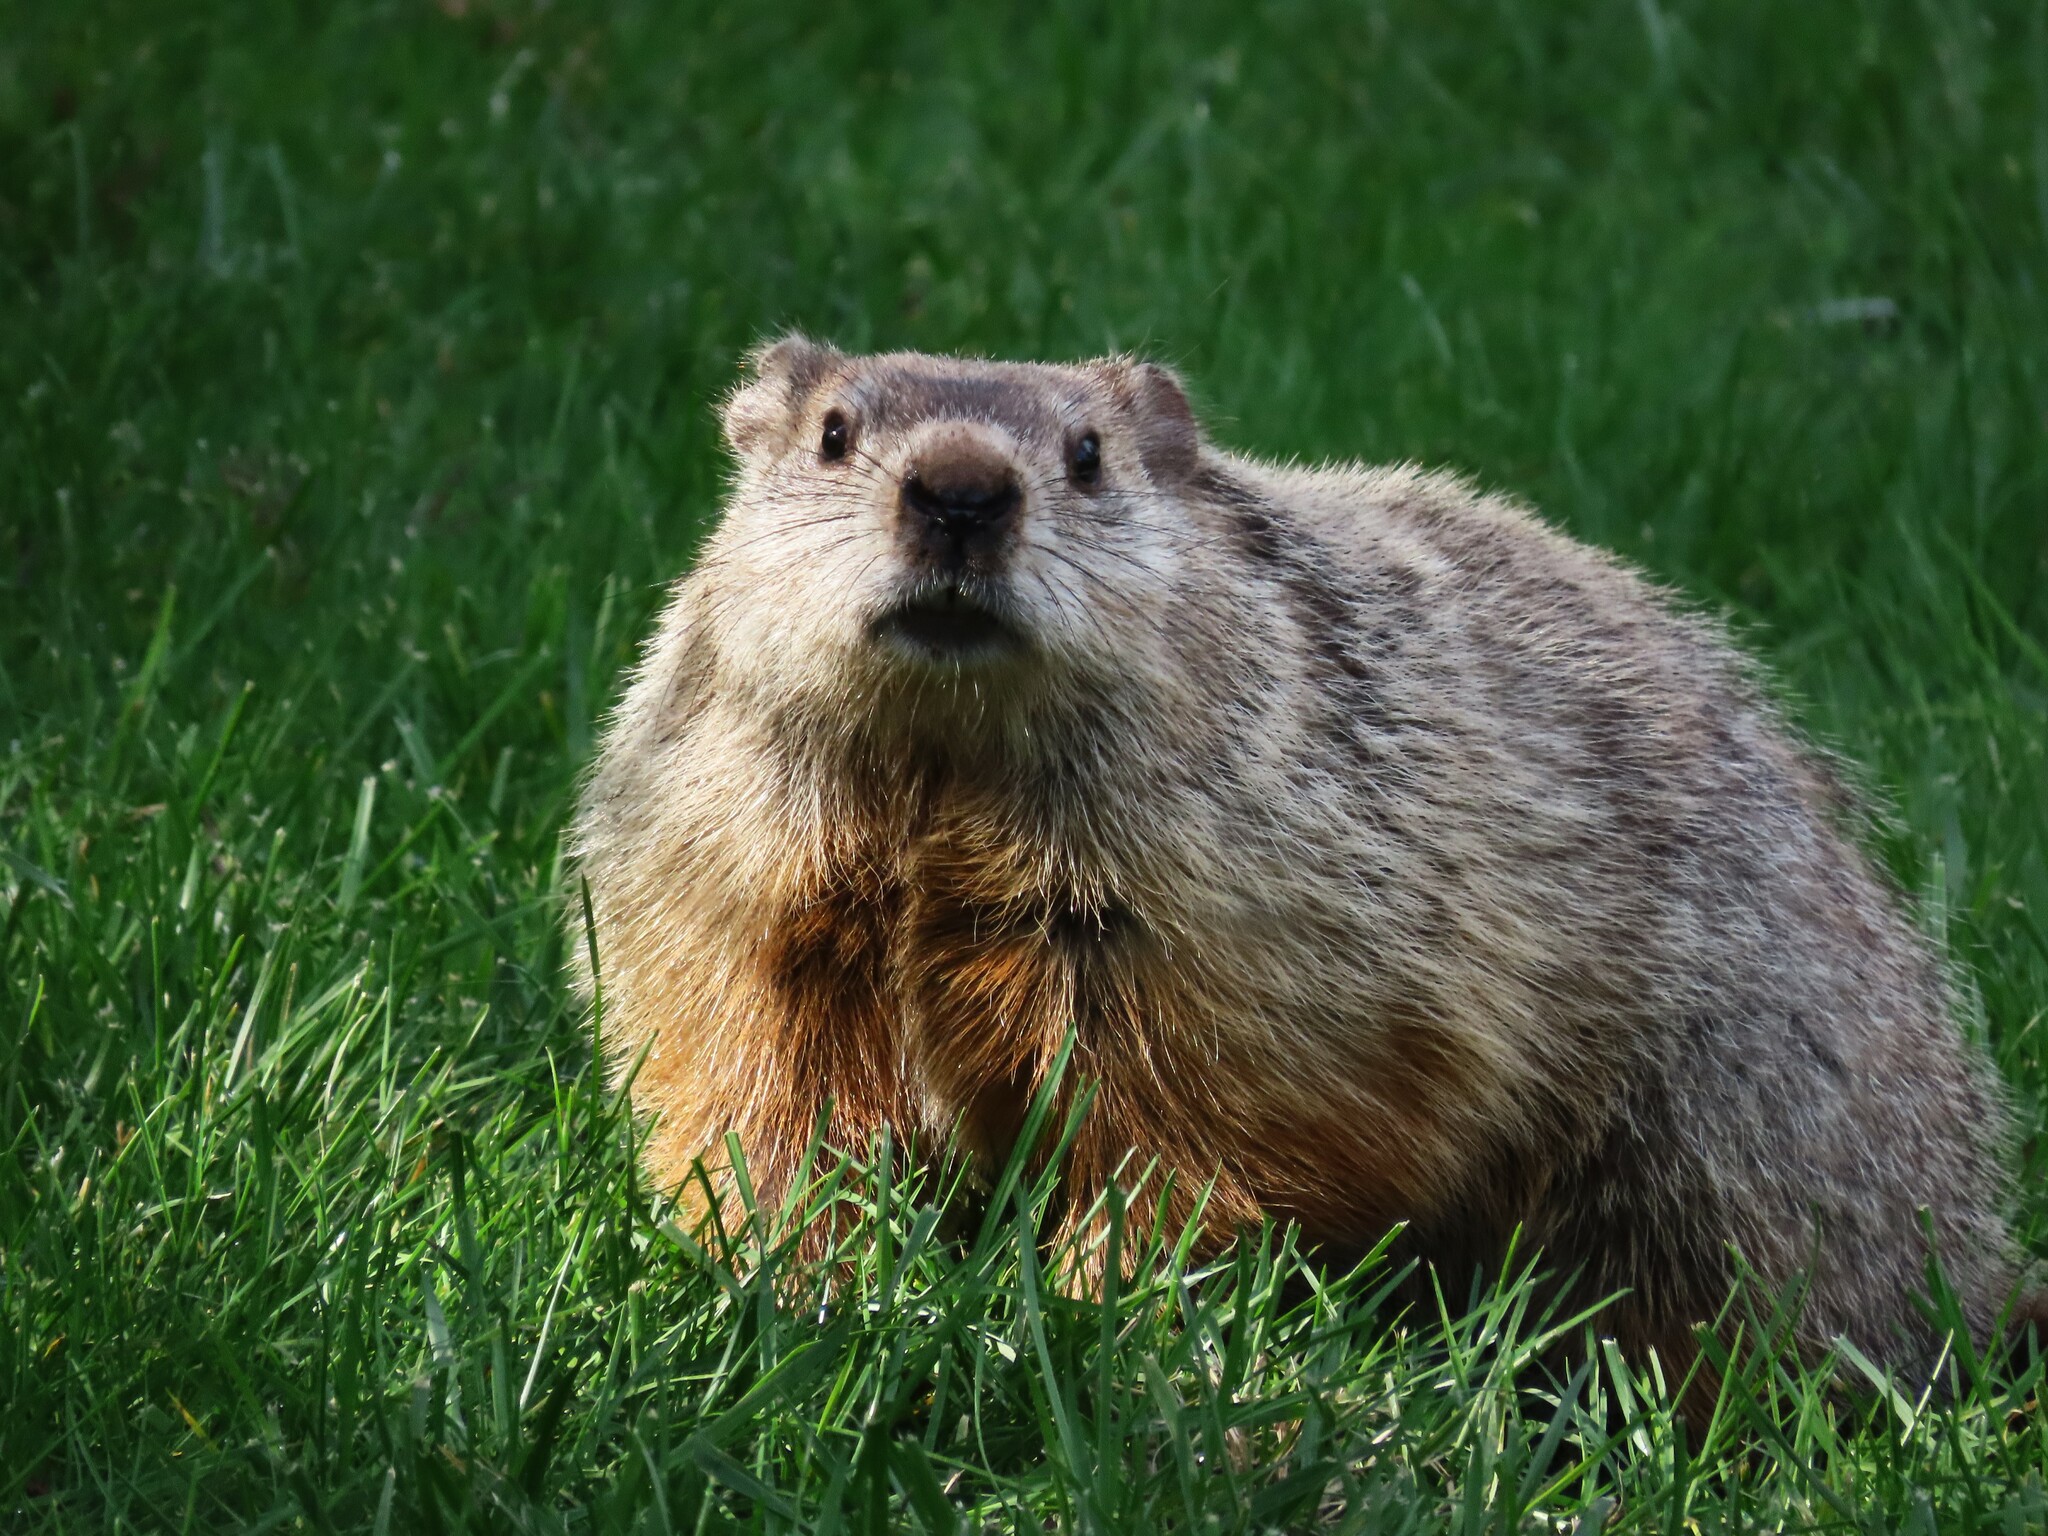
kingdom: Animalia
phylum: Chordata
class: Mammalia
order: Rodentia
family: Sciuridae
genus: Marmota
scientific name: Marmota monax
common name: Groundhog
